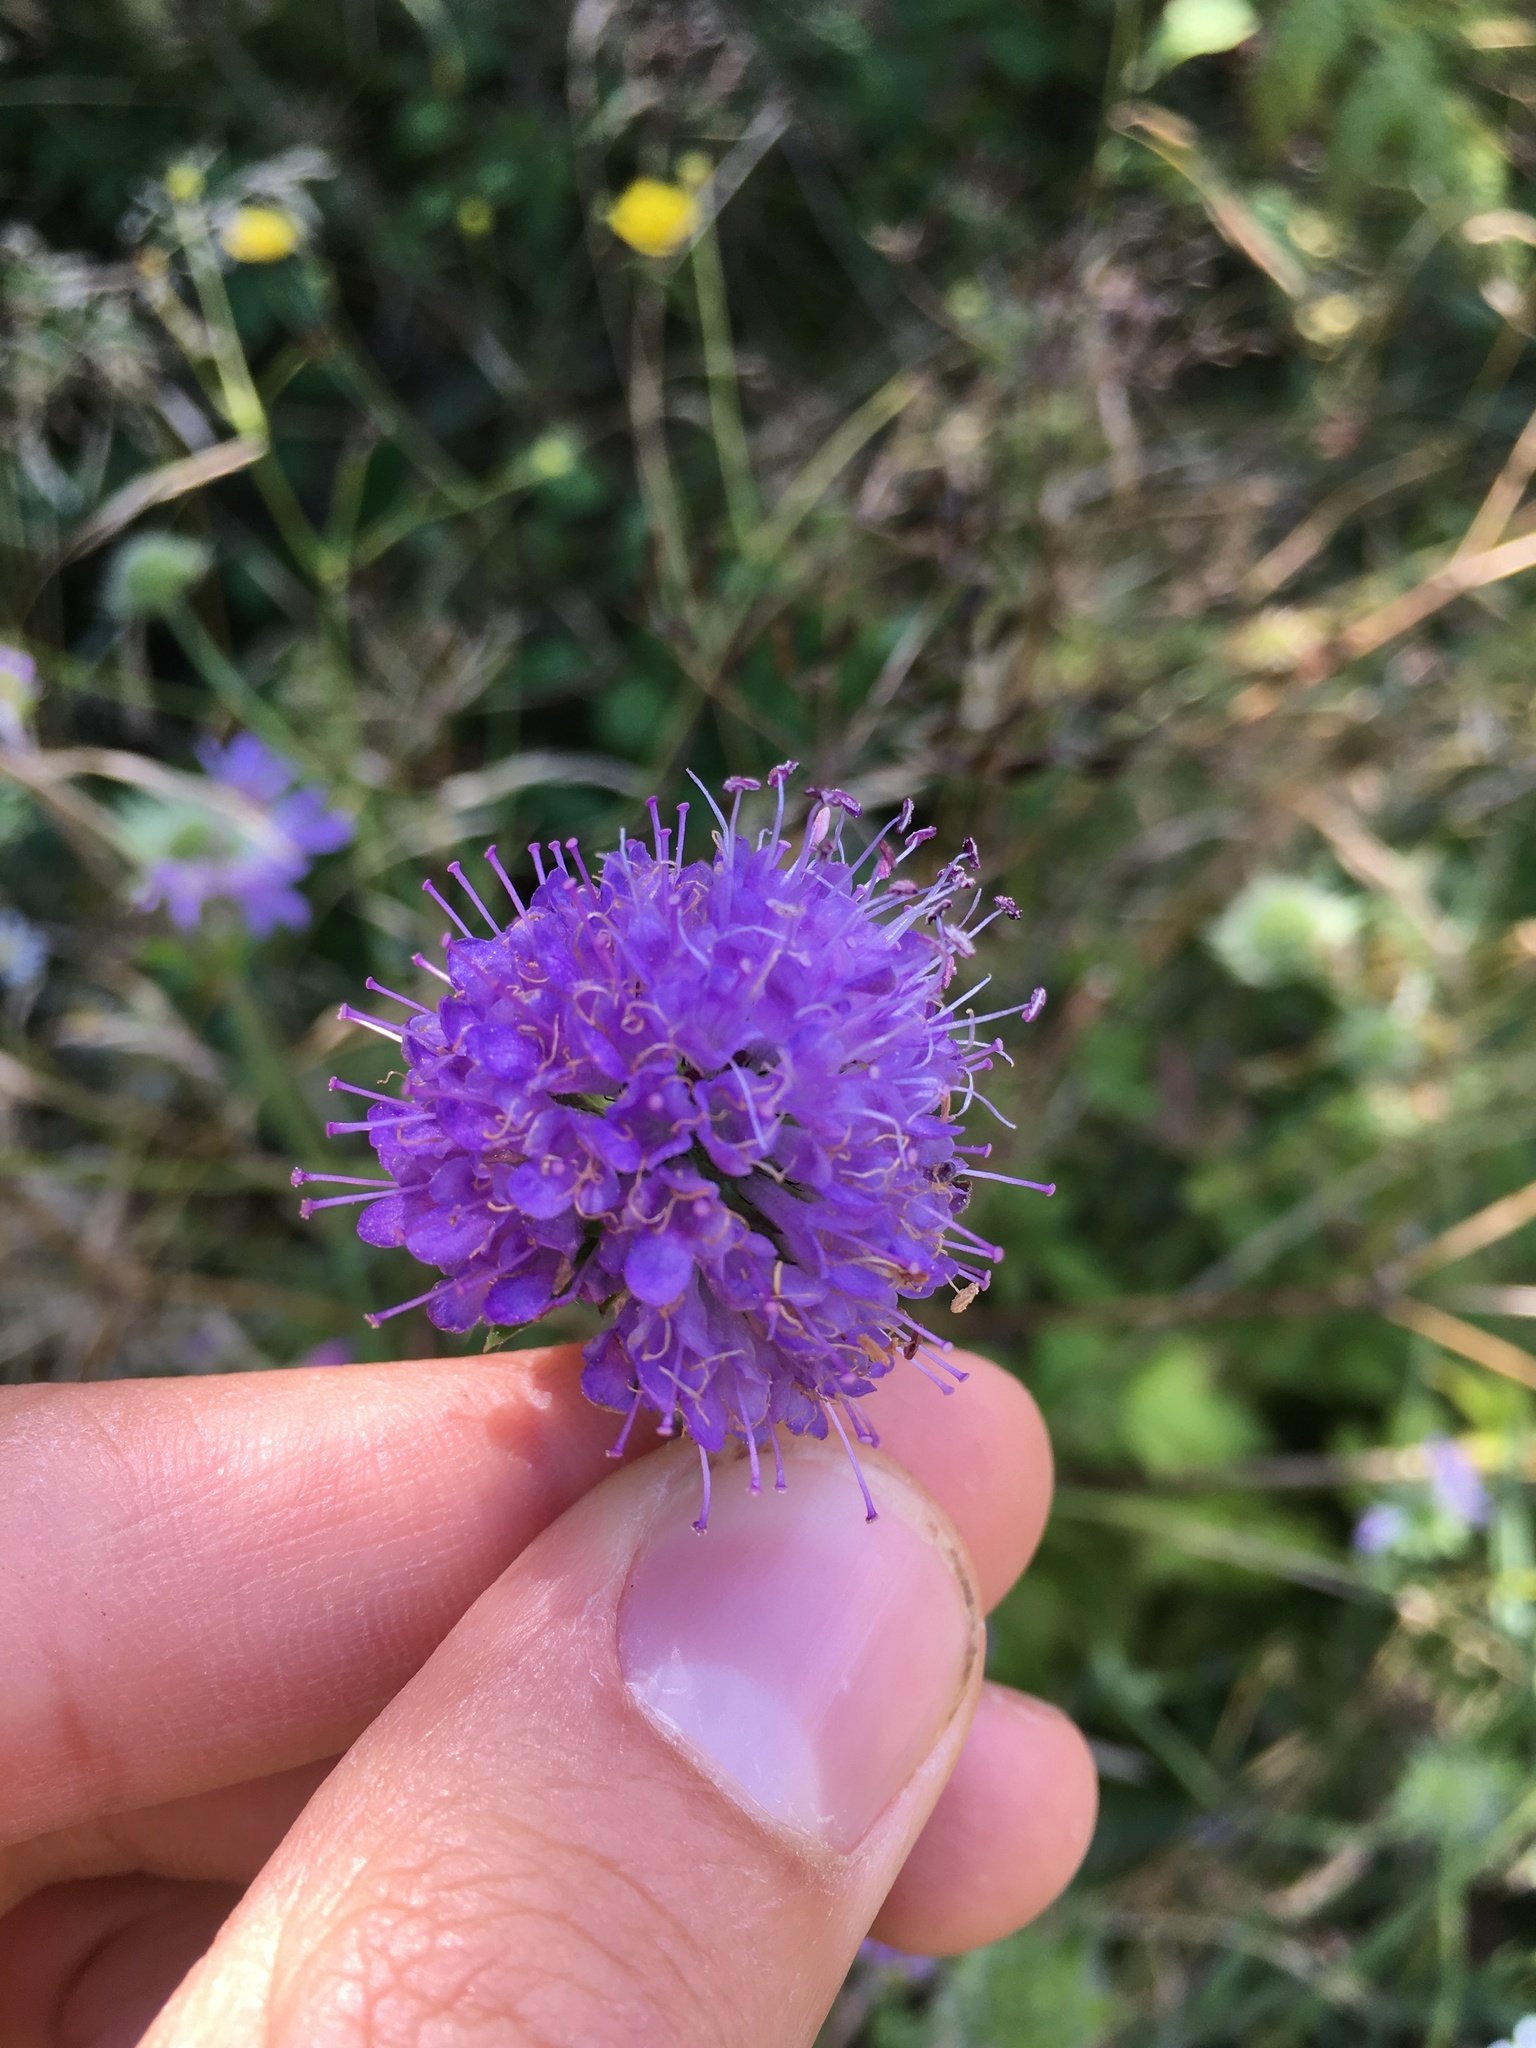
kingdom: Plantae
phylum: Tracheophyta
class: Magnoliopsida
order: Dipsacales
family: Caprifoliaceae
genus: Succisa
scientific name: Succisa pratensis
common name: Devil's-bit
